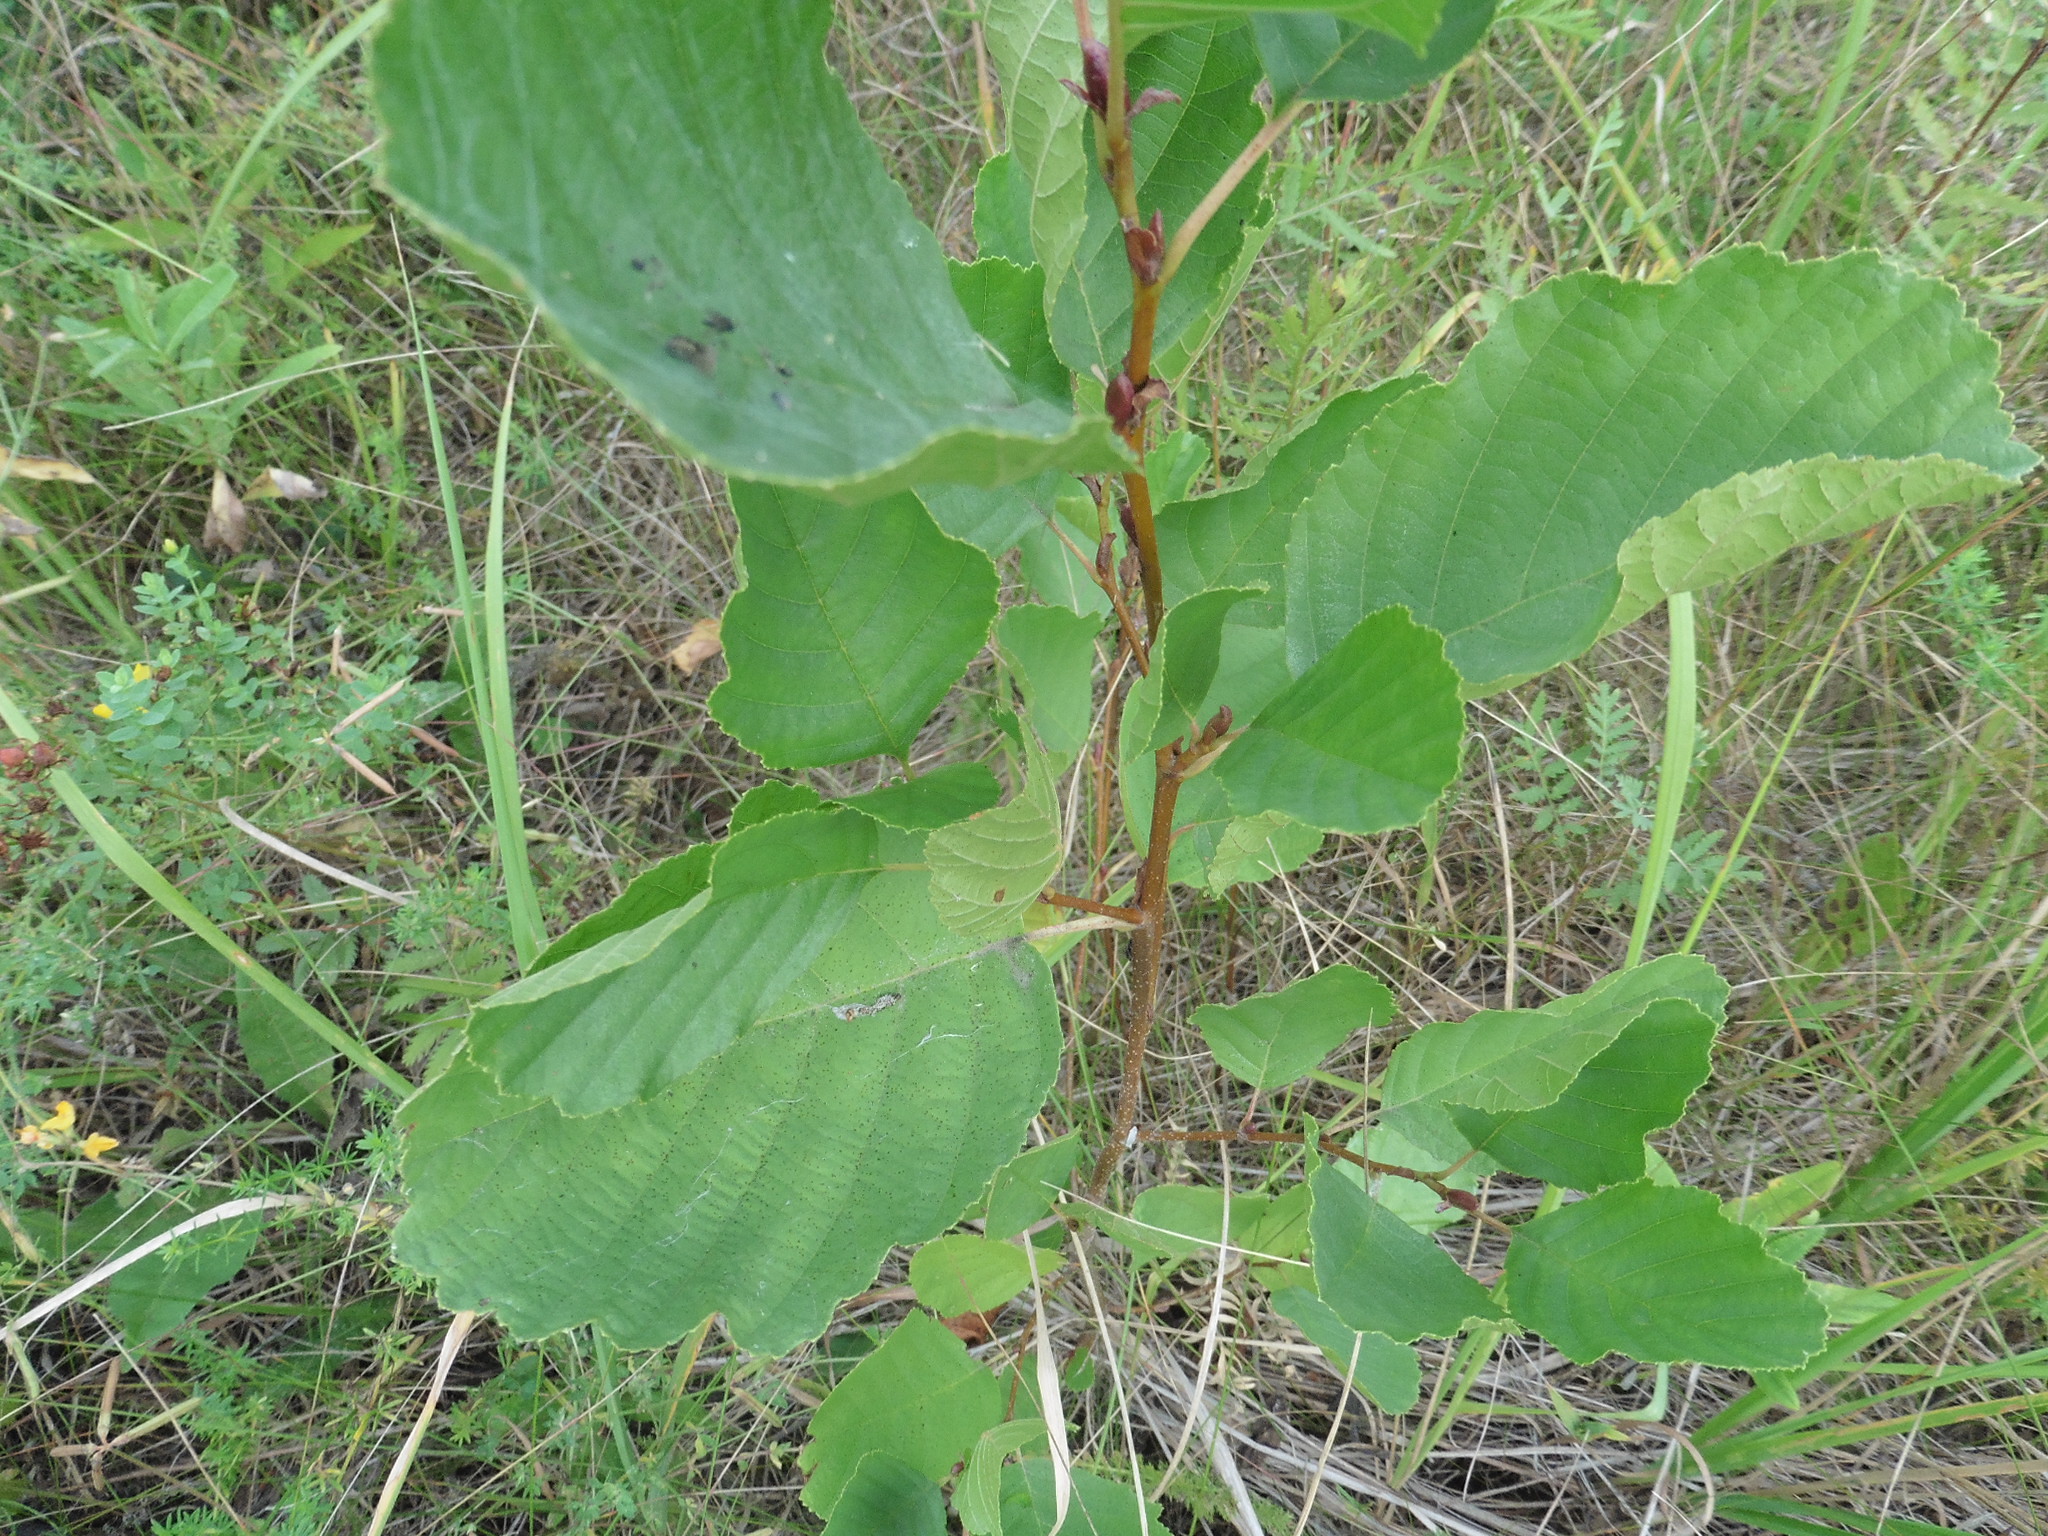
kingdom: Plantae
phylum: Tracheophyta
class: Magnoliopsida
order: Fagales
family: Betulaceae
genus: Alnus
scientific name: Alnus glutinosa
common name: Black alder
